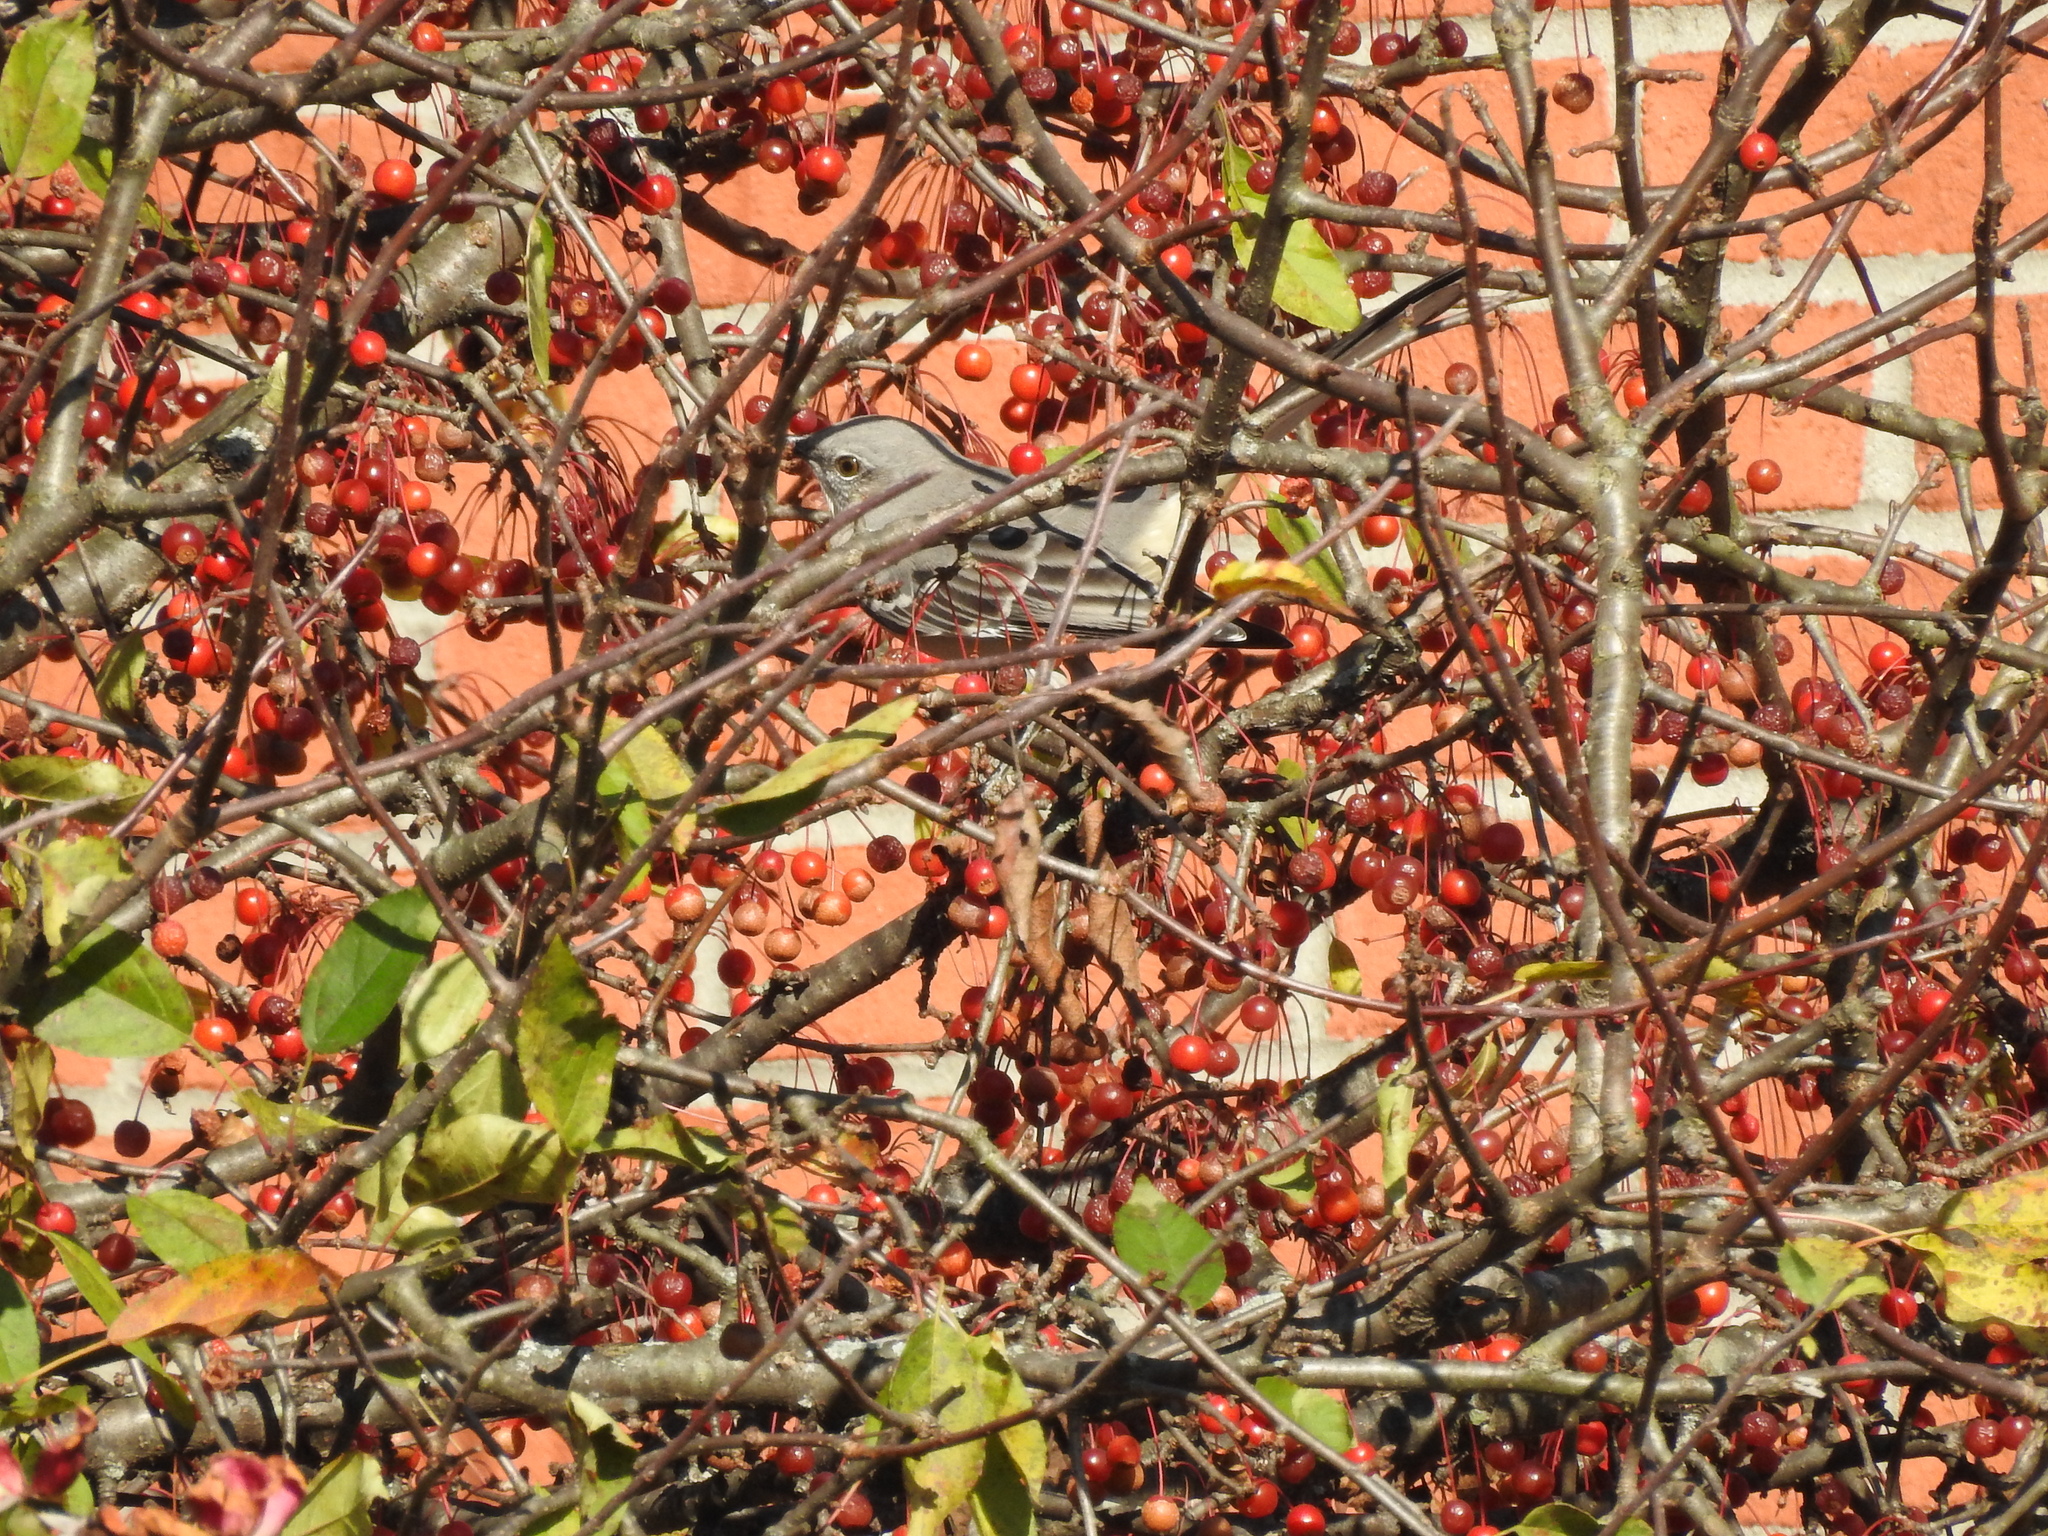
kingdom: Animalia
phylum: Chordata
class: Aves
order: Passeriformes
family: Mimidae
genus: Mimus
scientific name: Mimus polyglottos
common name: Northern mockingbird
